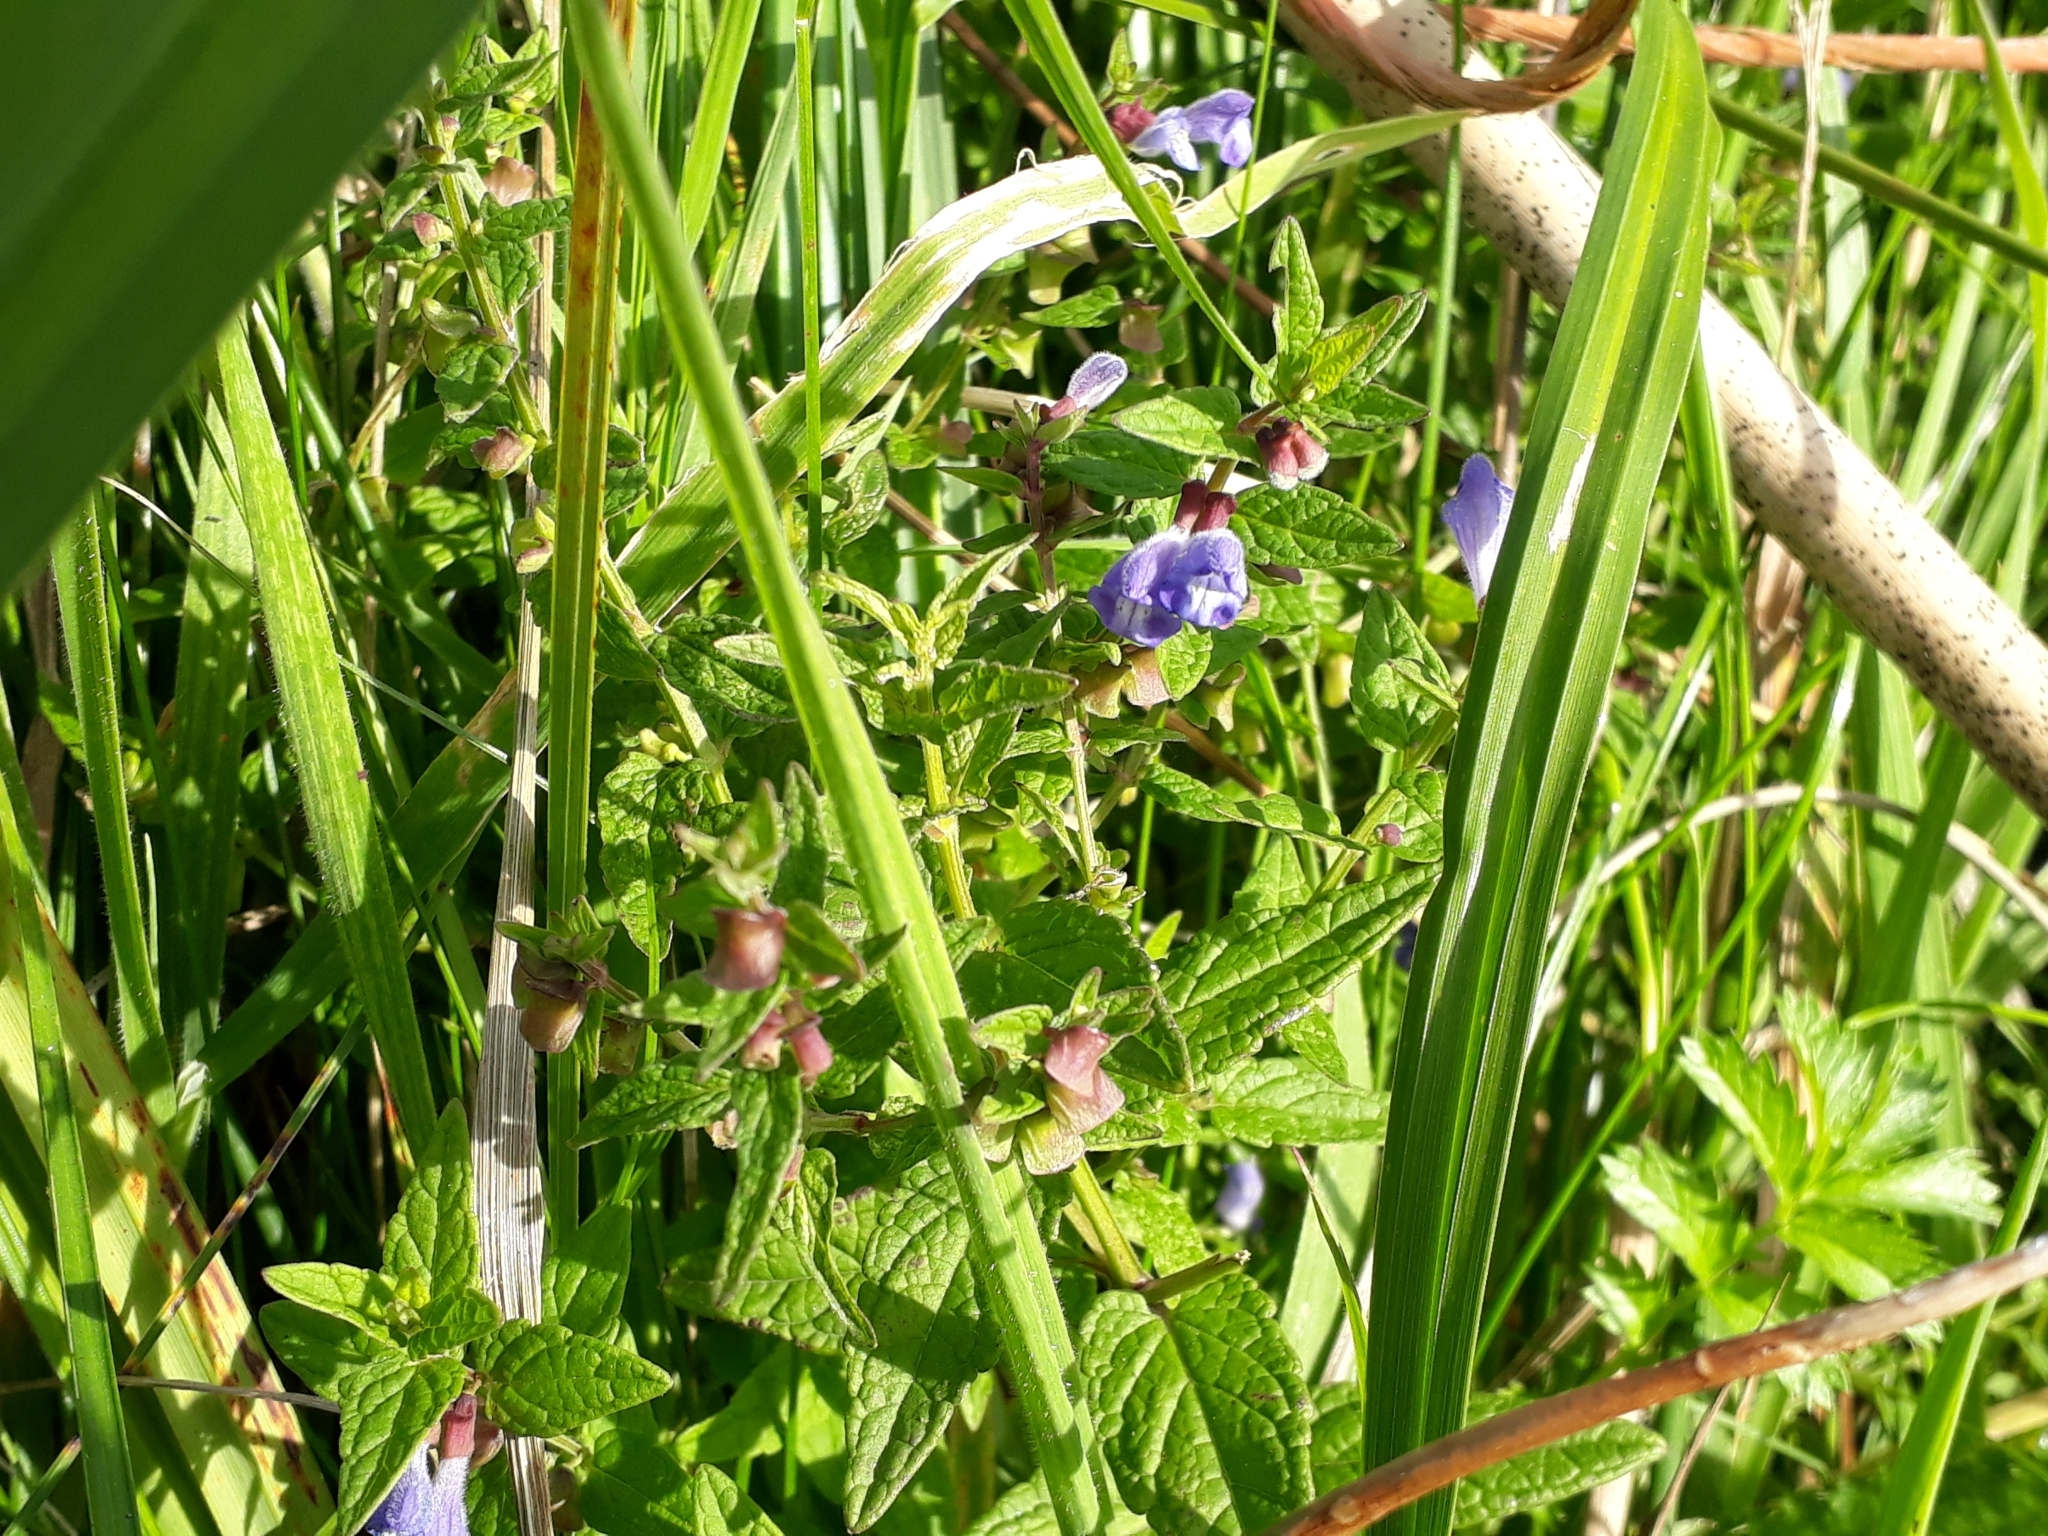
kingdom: Plantae
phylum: Tracheophyta
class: Magnoliopsida
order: Lamiales
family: Lamiaceae
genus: Scutellaria
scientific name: Scutellaria galericulata
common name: Skullcap
